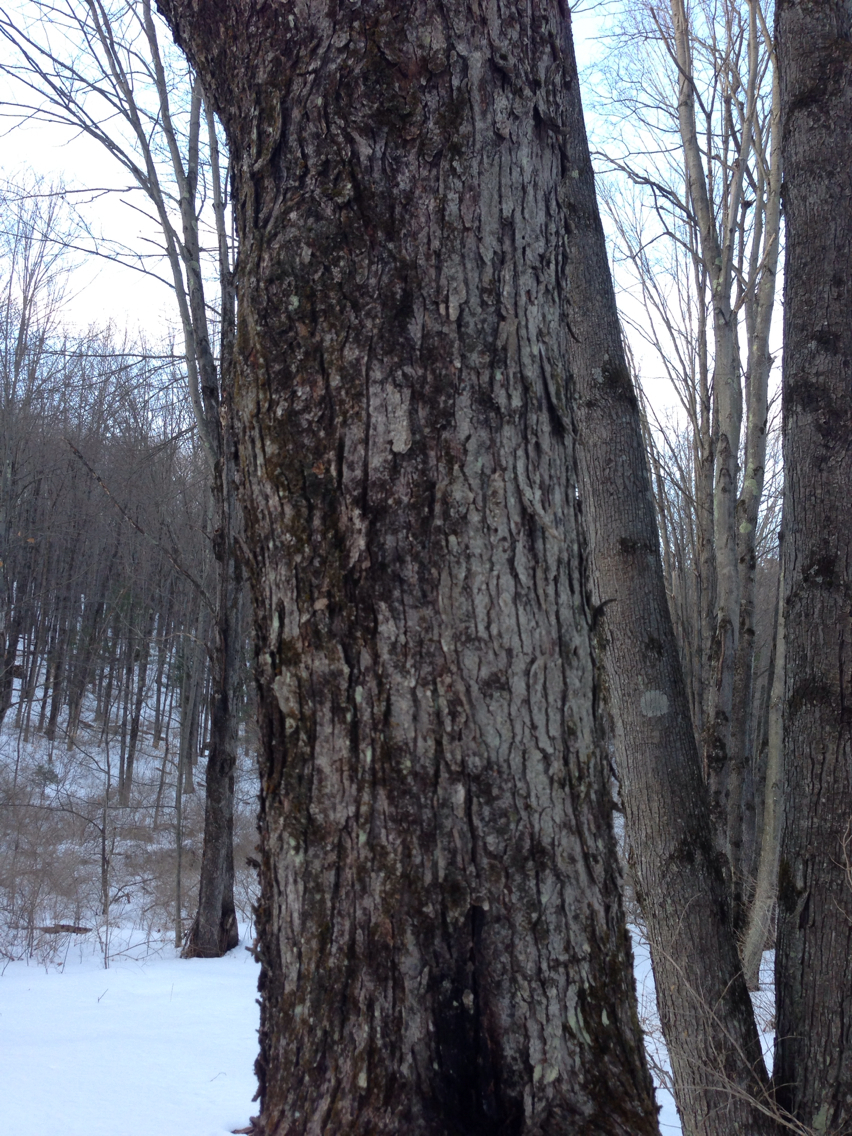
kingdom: Plantae
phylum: Tracheophyta
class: Magnoliopsida
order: Sapindales
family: Sapindaceae
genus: Acer
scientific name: Acer saccharum
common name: Sugar maple
